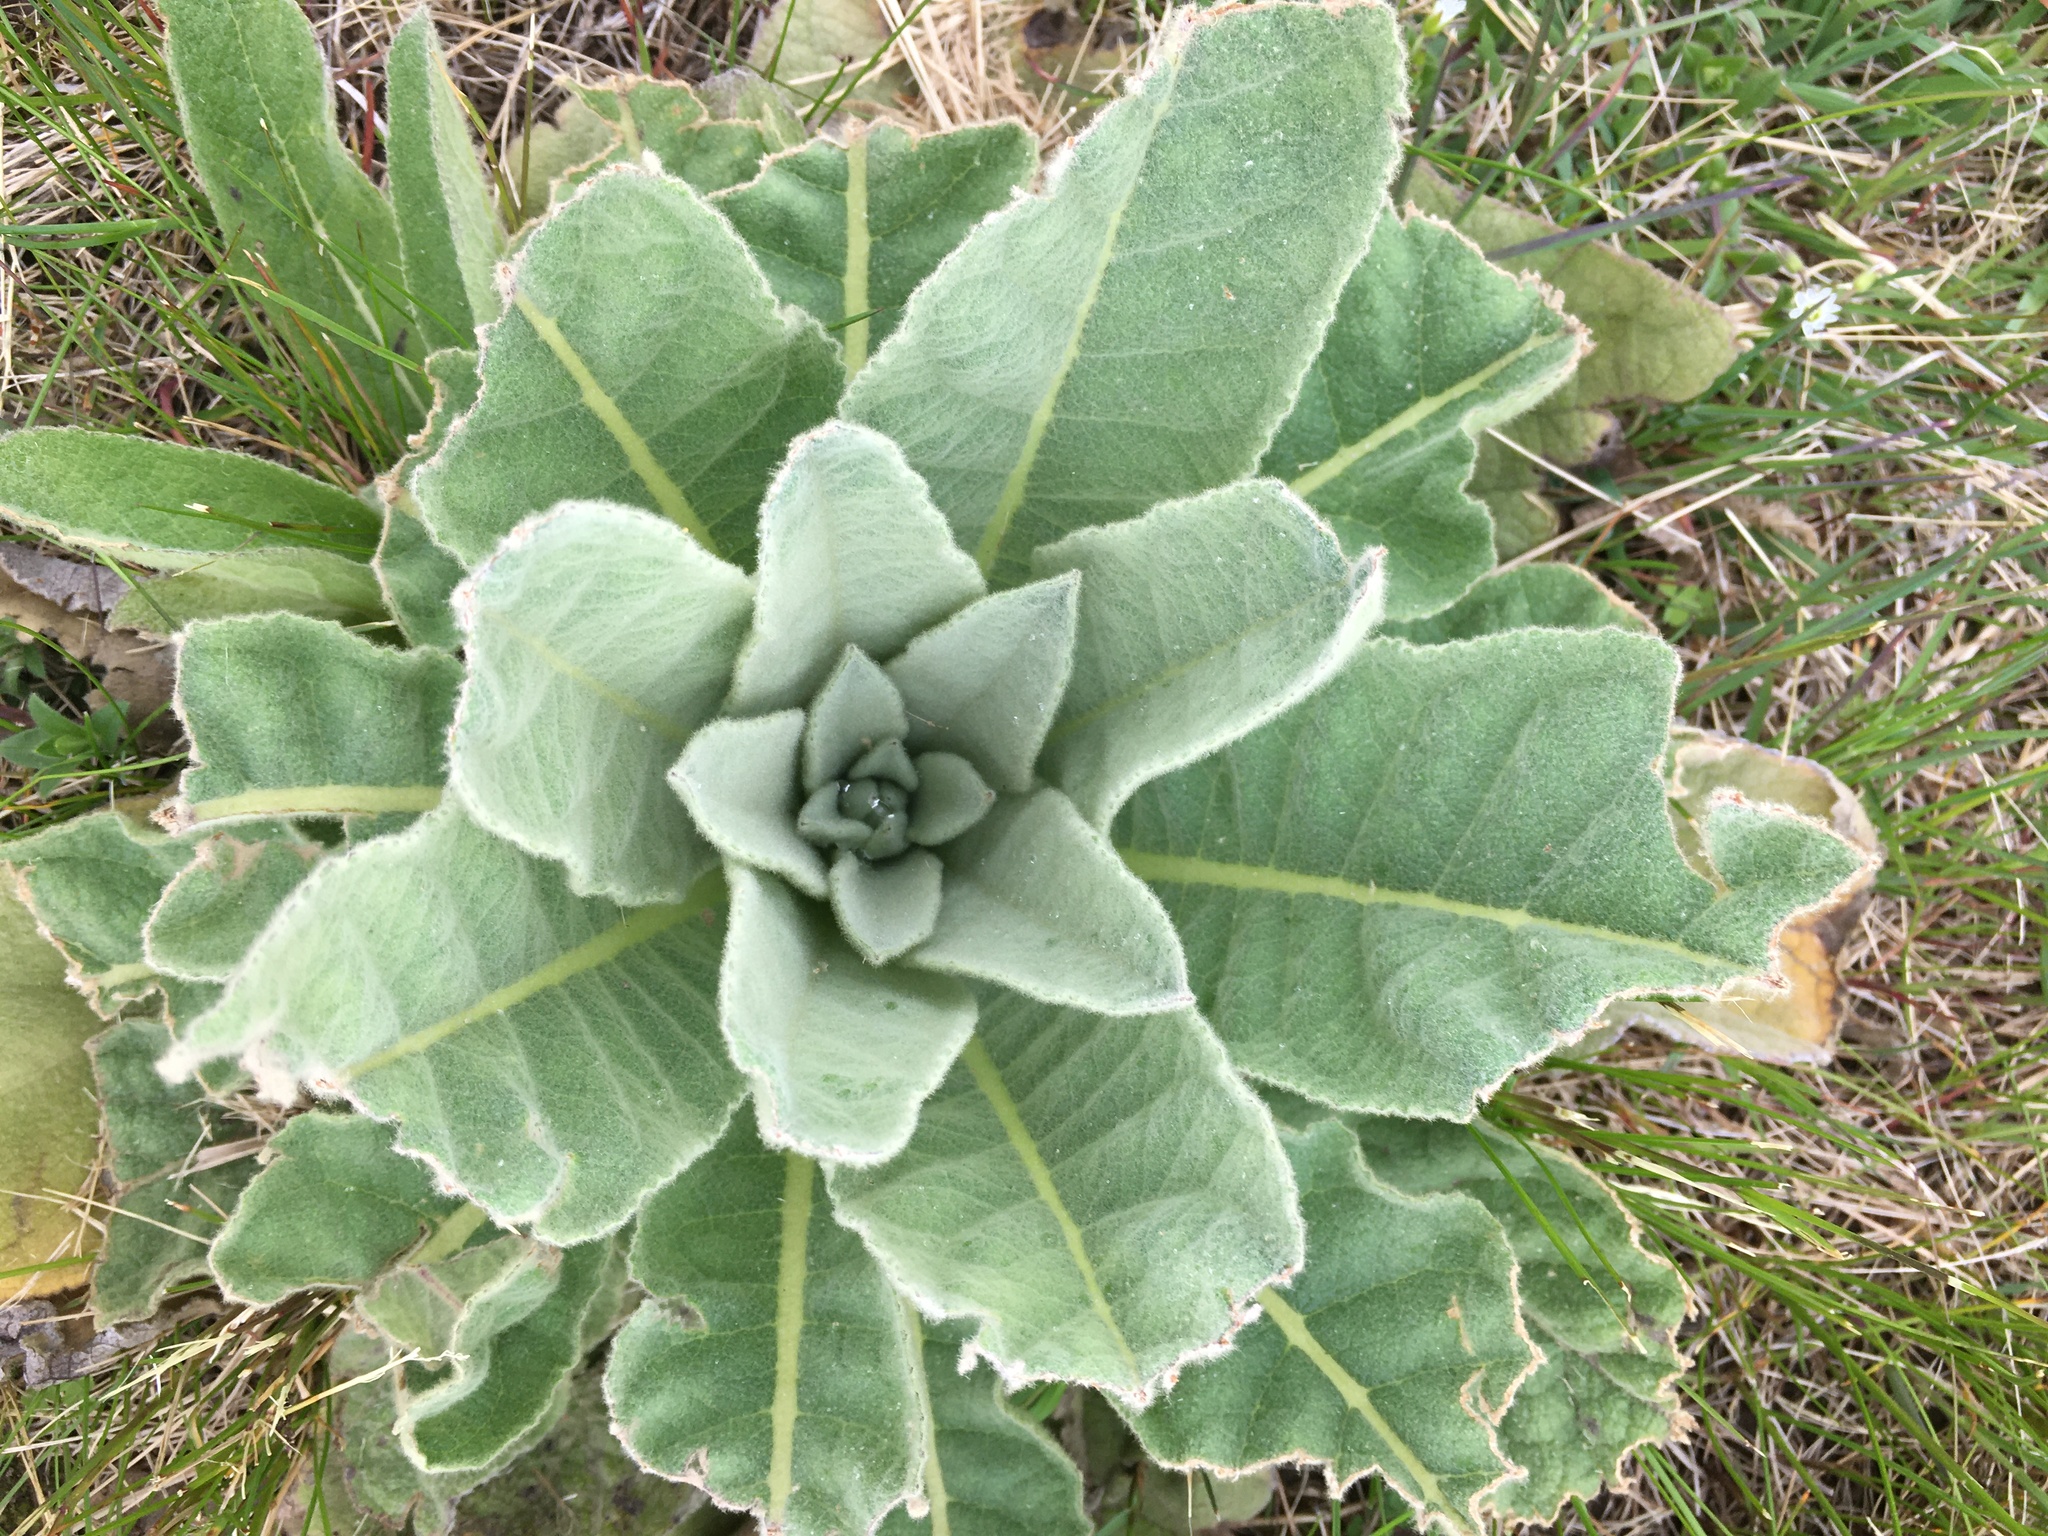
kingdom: Plantae
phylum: Tracheophyta
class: Magnoliopsida
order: Lamiales
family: Scrophulariaceae
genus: Verbascum
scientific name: Verbascum thapsus
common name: Common mullein
